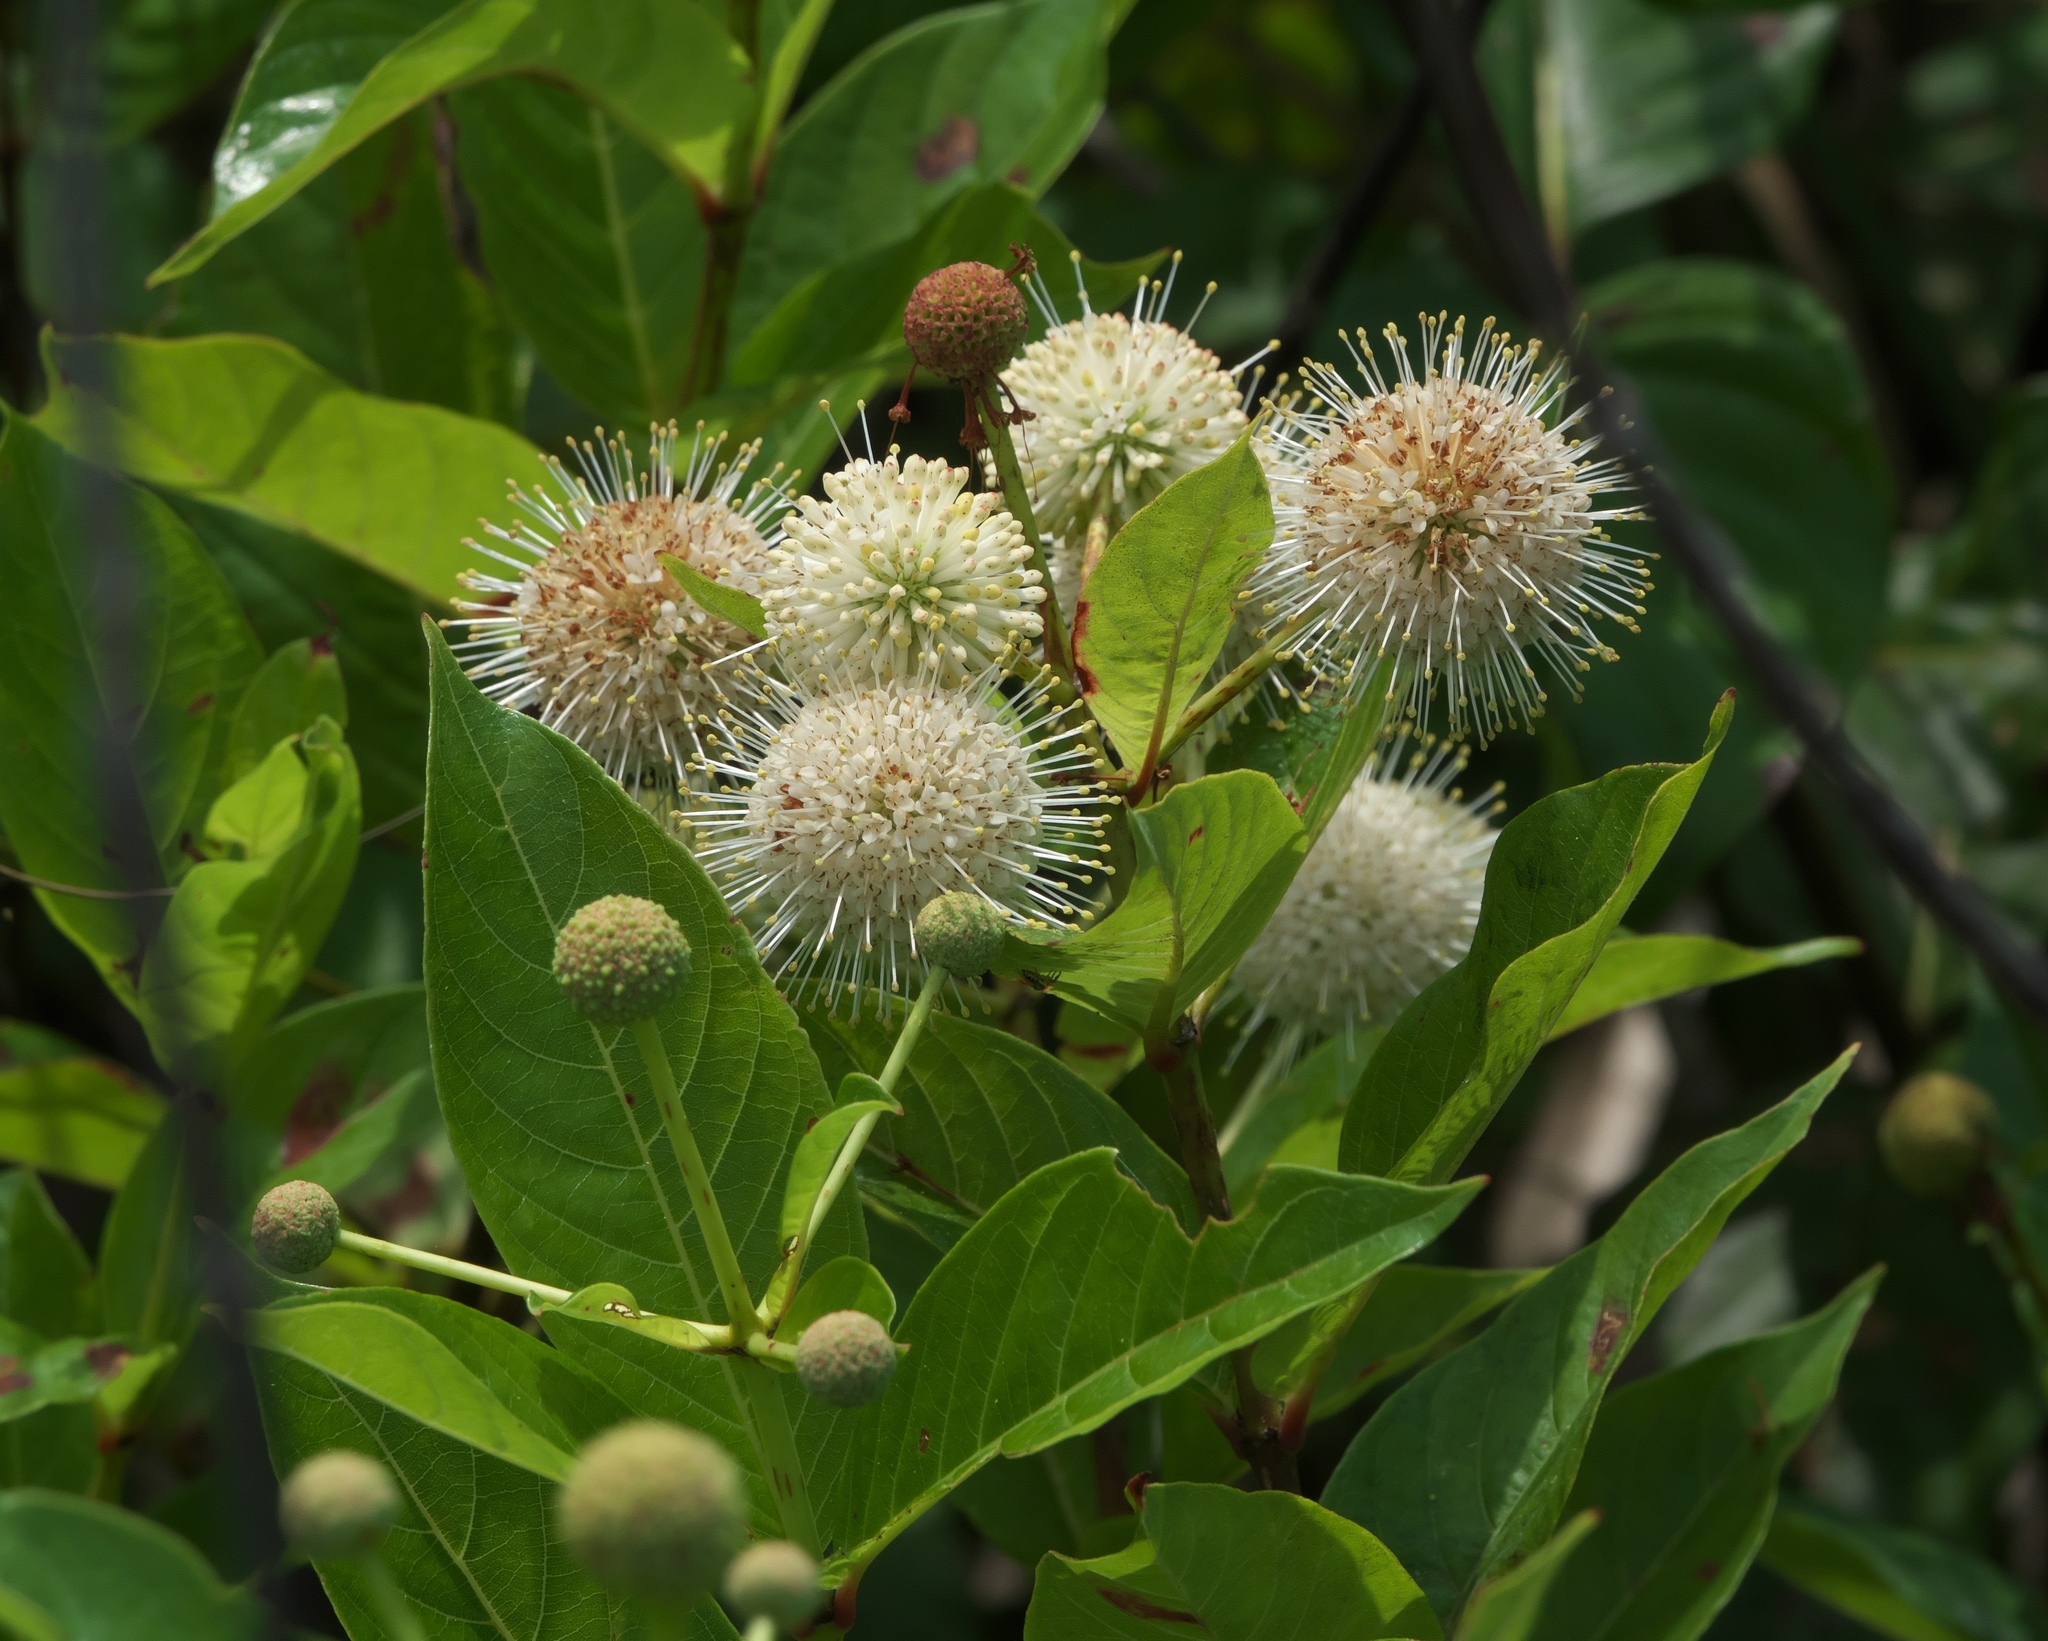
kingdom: Plantae
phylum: Tracheophyta
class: Magnoliopsida
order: Gentianales
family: Rubiaceae
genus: Cephalanthus
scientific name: Cephalanthus occidentalis
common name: Button-willow
